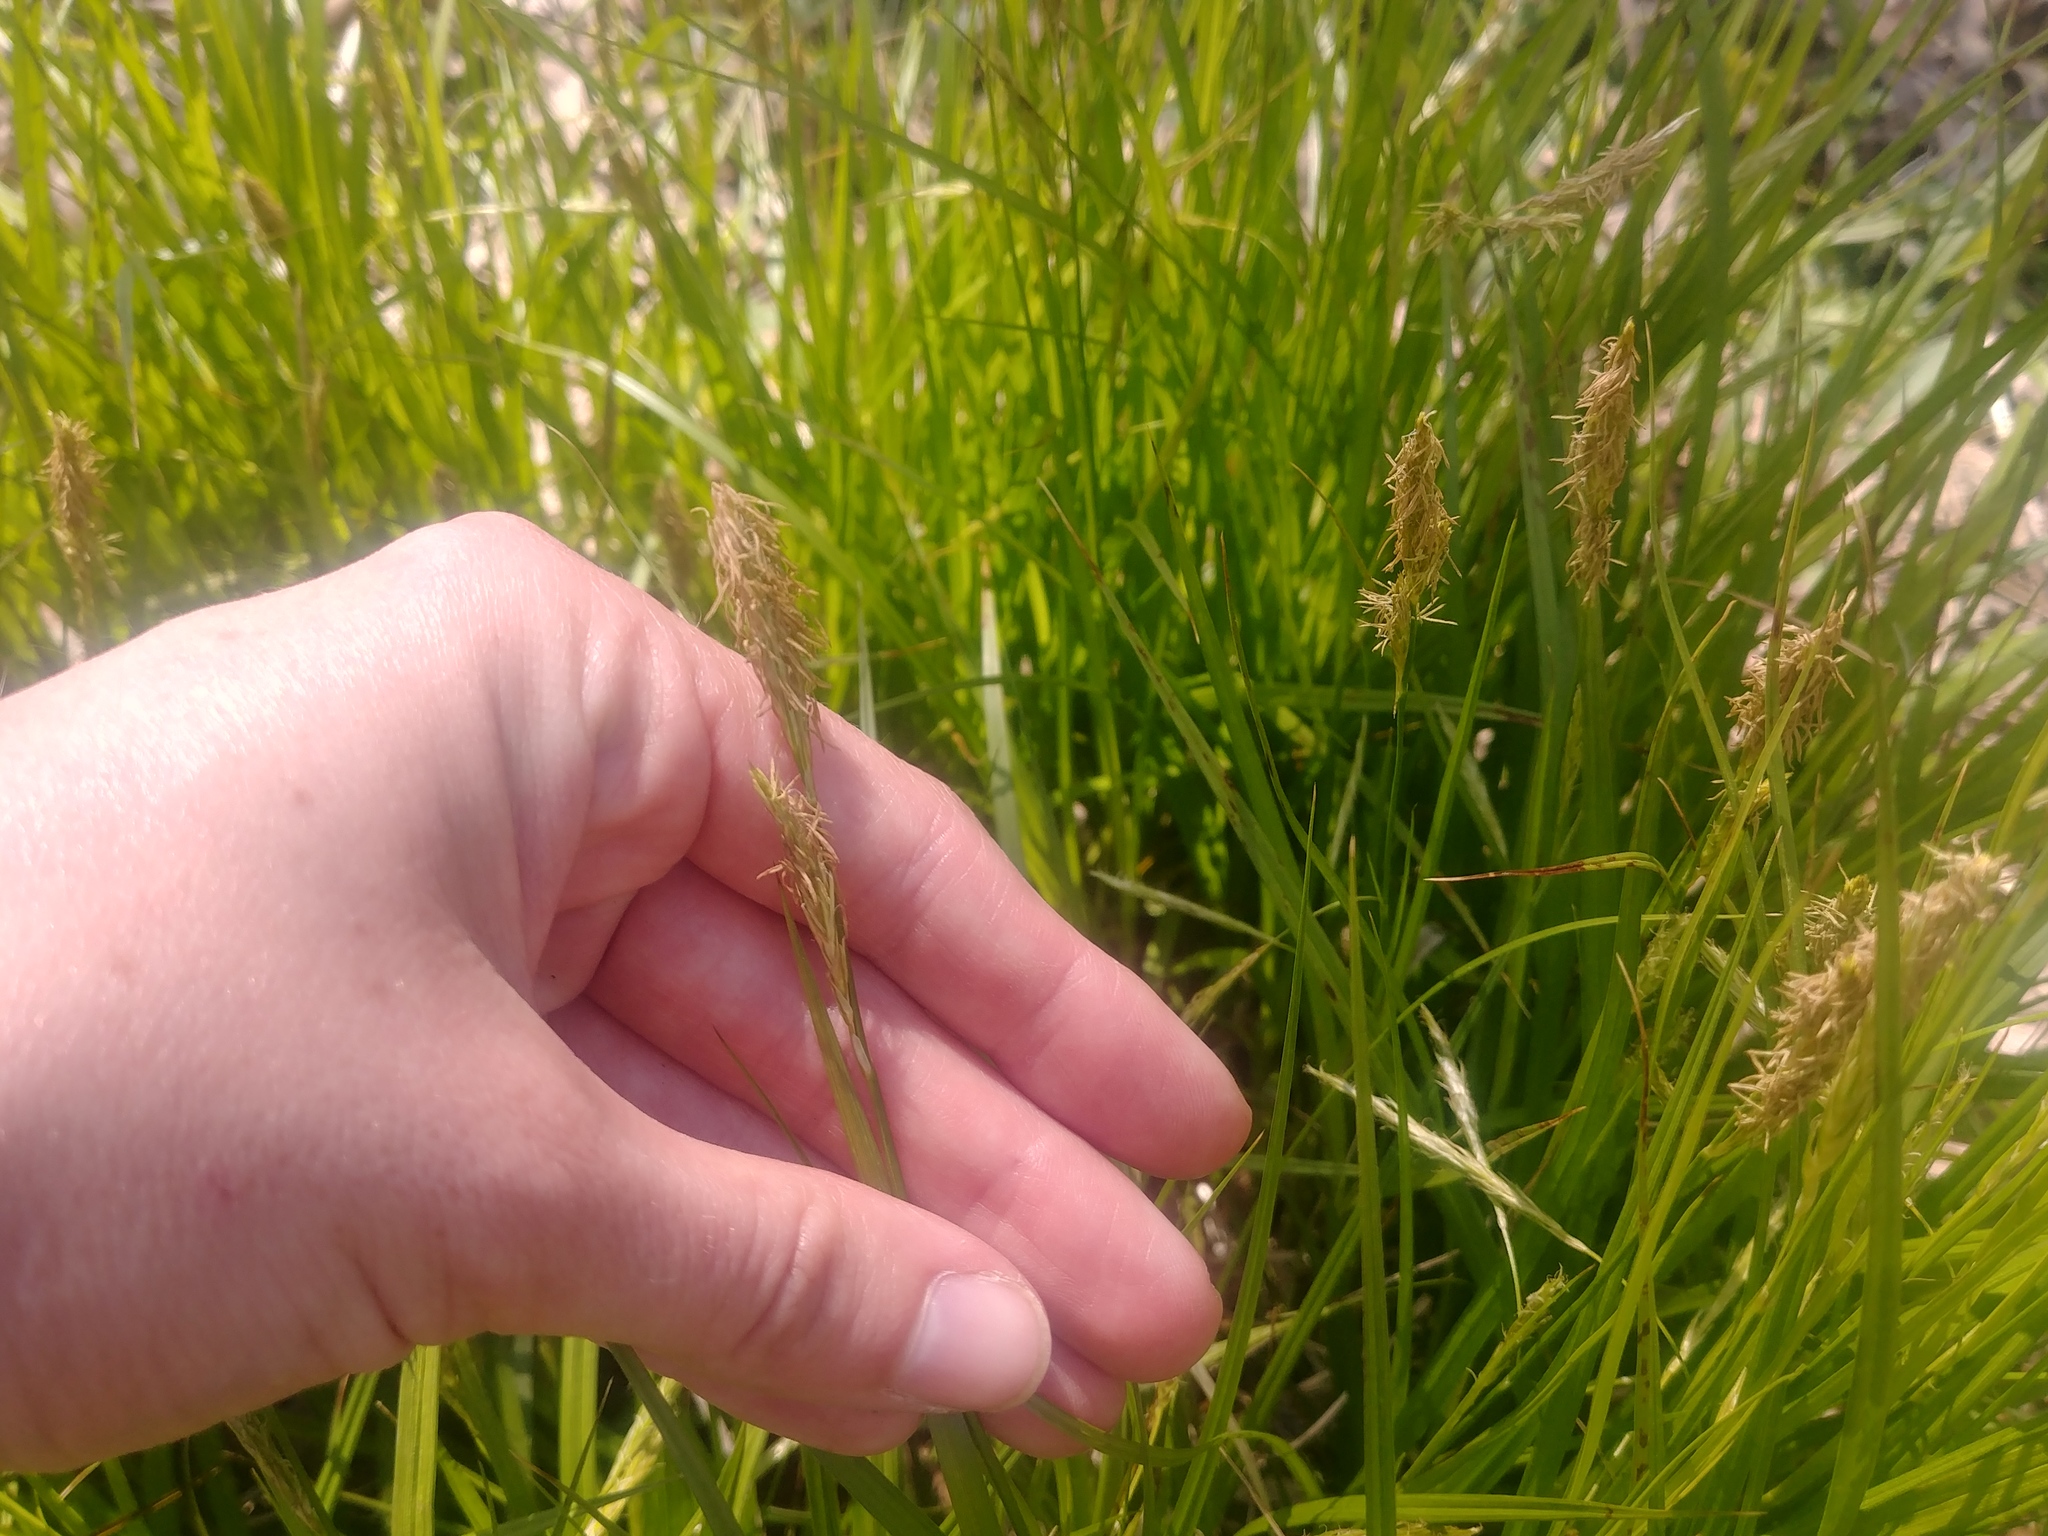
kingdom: Plantae
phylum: Tracheophyta
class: Liliopsida
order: Poales
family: Cyperaceae
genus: Carex
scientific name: Carex sprengelii
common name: Long-beaked sedge
